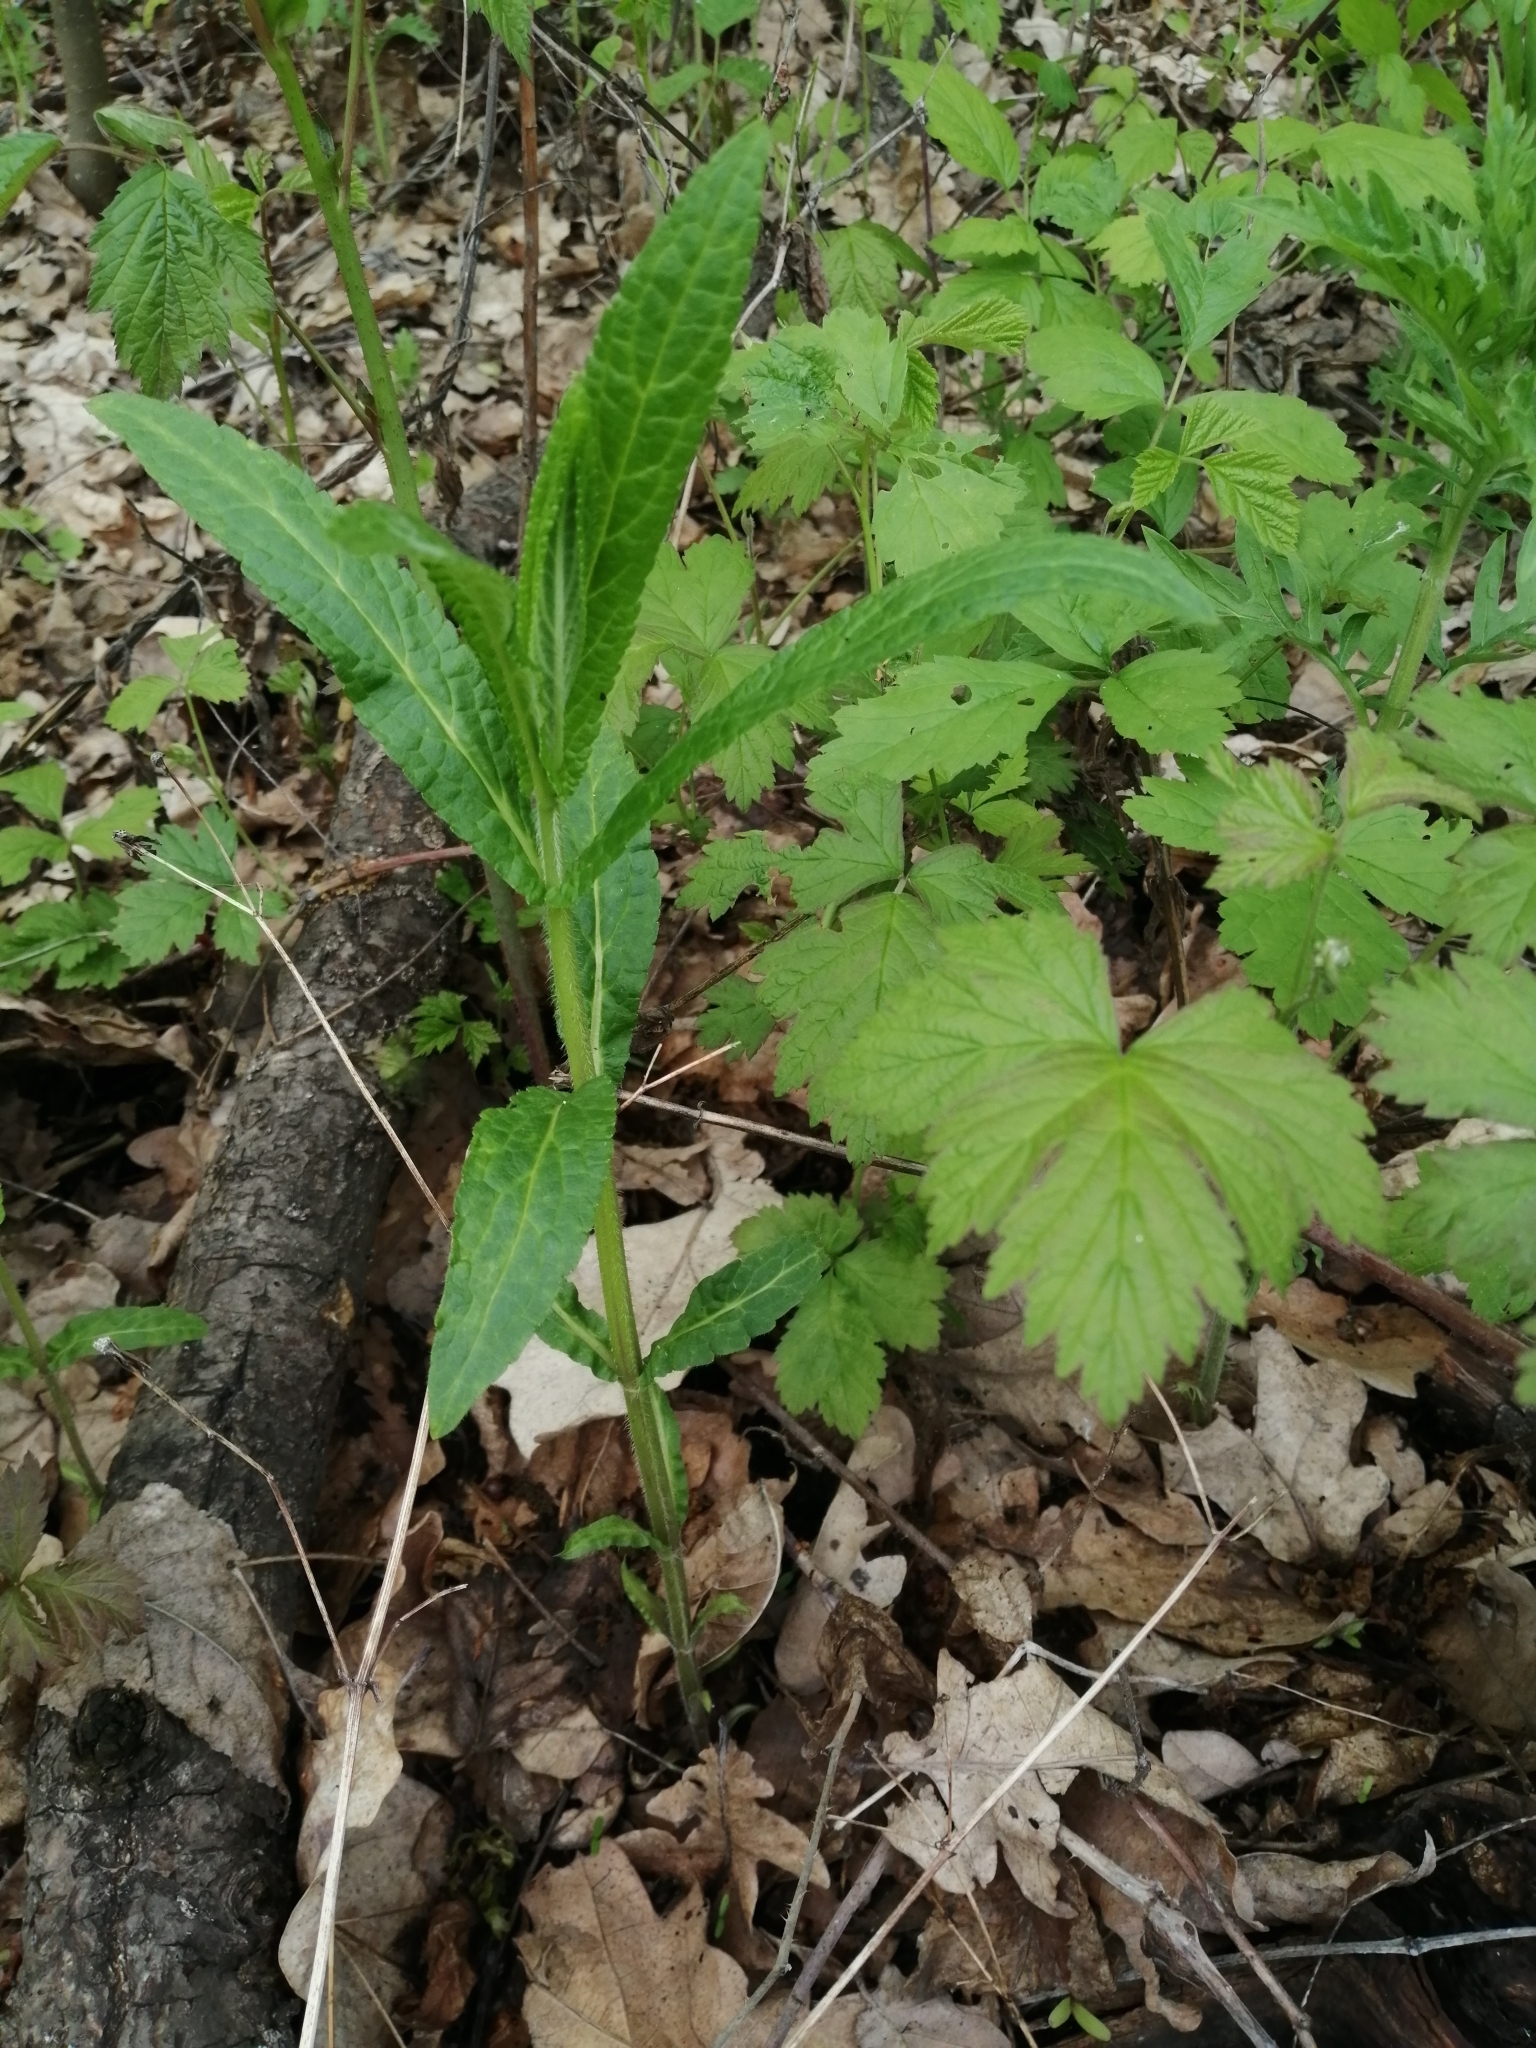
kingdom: Plantae
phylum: Tracheophyta
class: Magnoliopsida
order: Lamiales
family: Lamiaceae
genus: Stachys
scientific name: Stachys palustris
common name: Marsh woundwort
